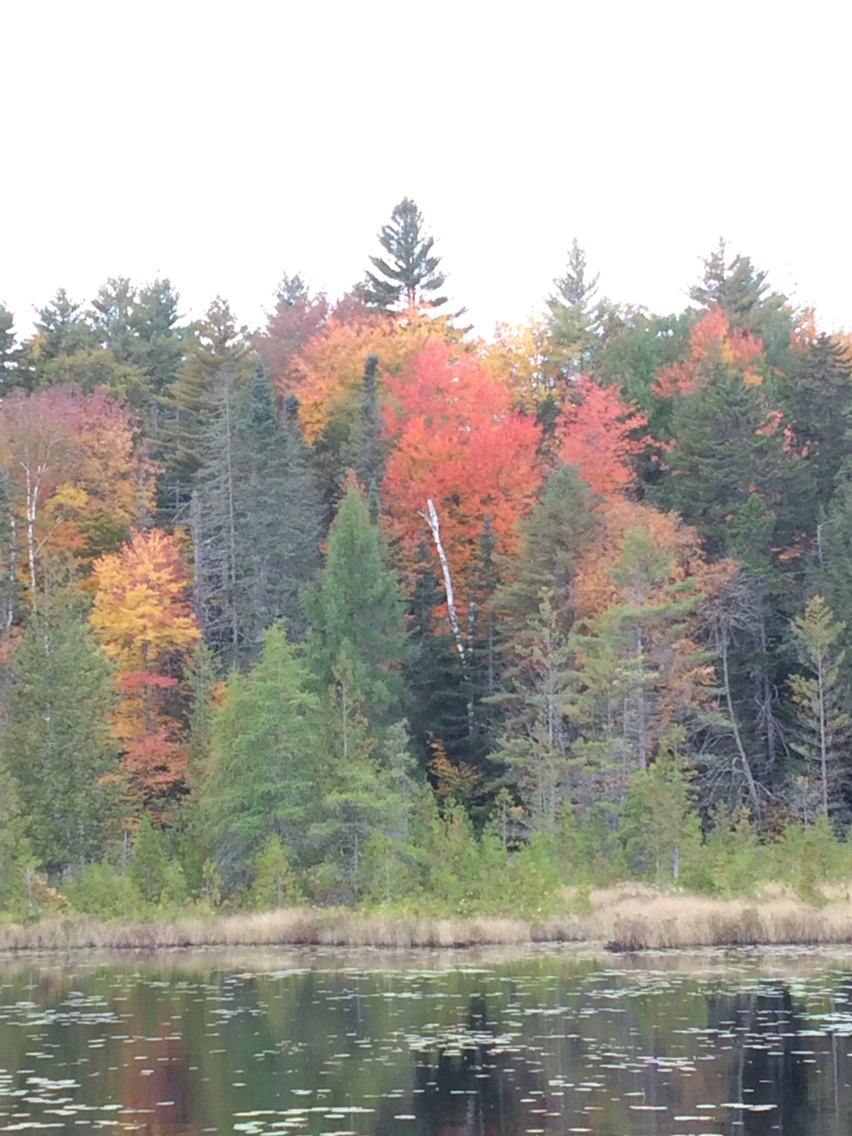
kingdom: Plantae
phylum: Tracheophyta
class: Magnoliopsida
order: Sapindales
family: Sapindaceae
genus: Acer
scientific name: Acer rubrum
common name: Red maple
